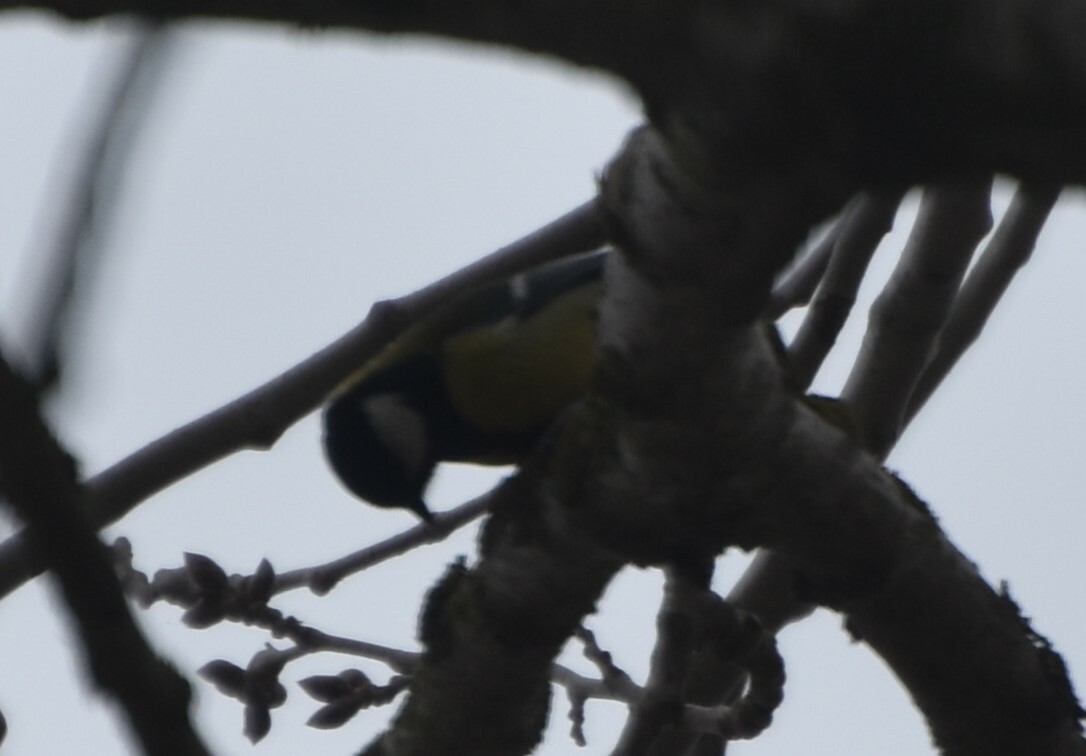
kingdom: Animalia
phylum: Chordata
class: Aves
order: Passeriformes
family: Paridae
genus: Parus
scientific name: Parus major
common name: Great tit
